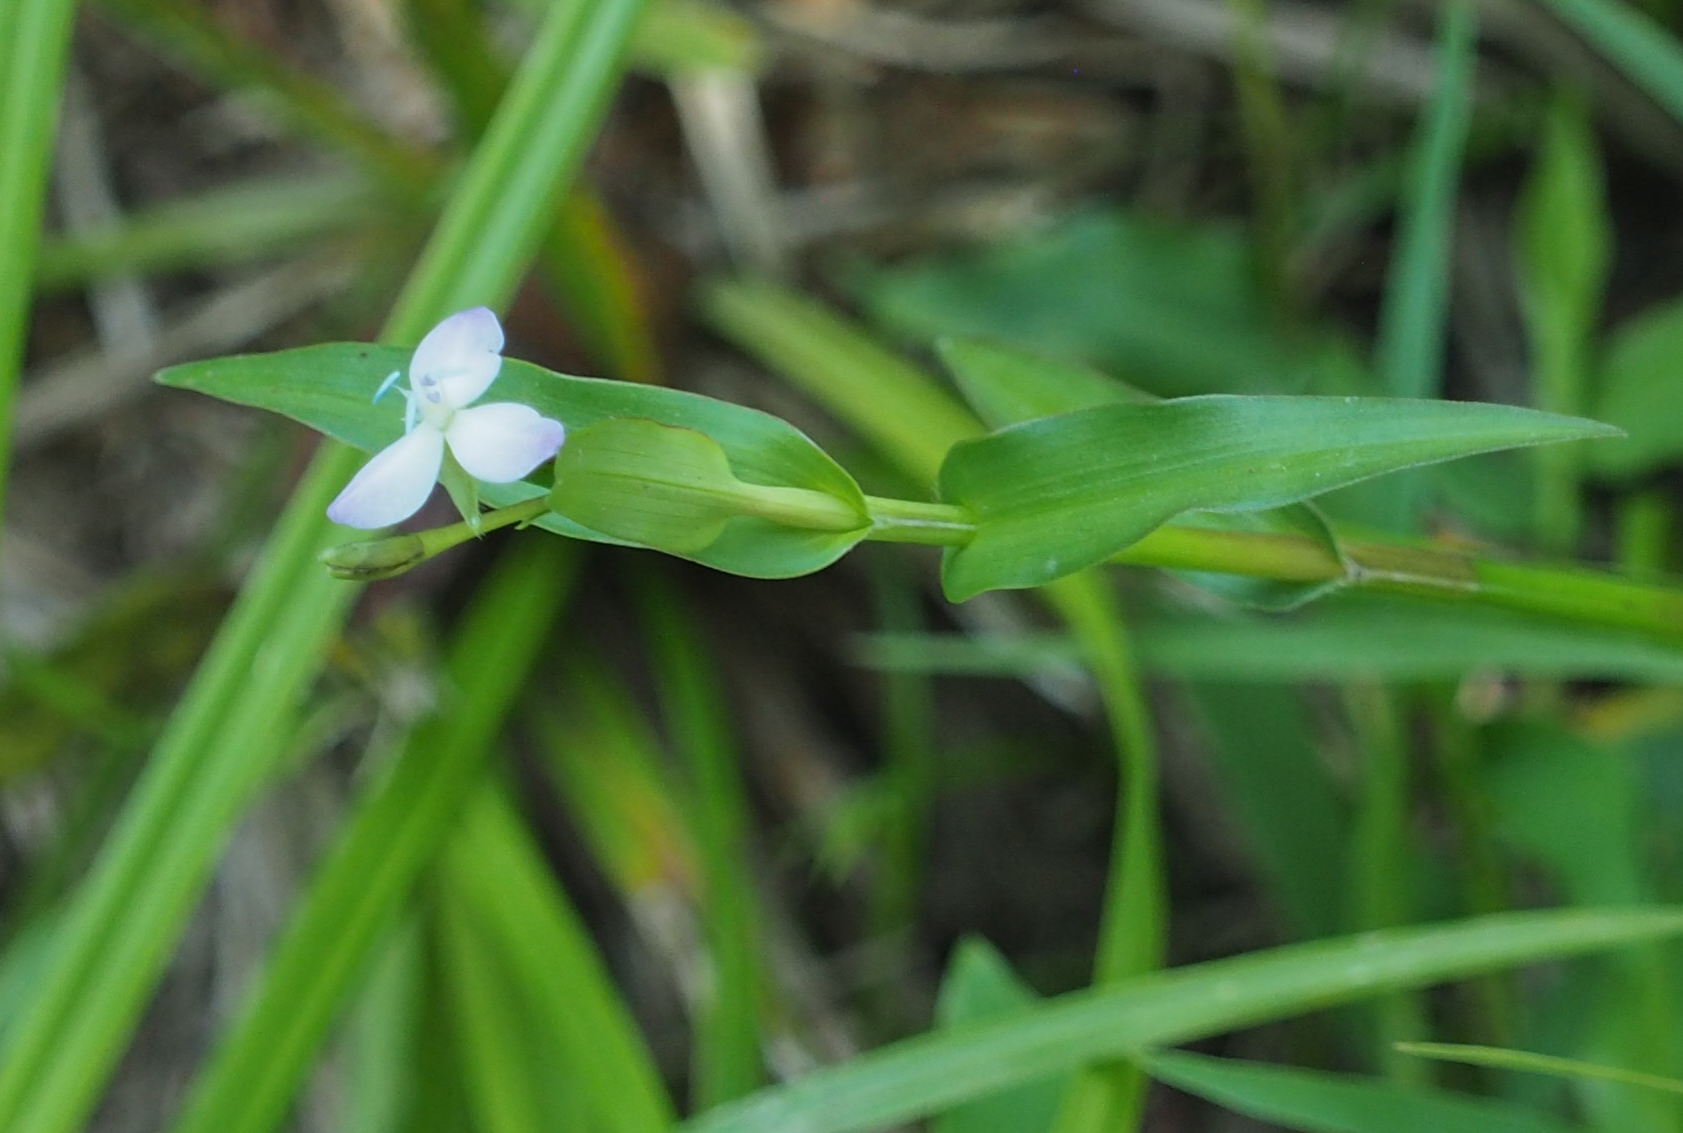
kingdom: Plantae
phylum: Tracheophyta
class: Liliopsida
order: Commelinales
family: Commelinaceae
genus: Murdannia
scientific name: Murdannia keisak
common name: Wartremoving herb
